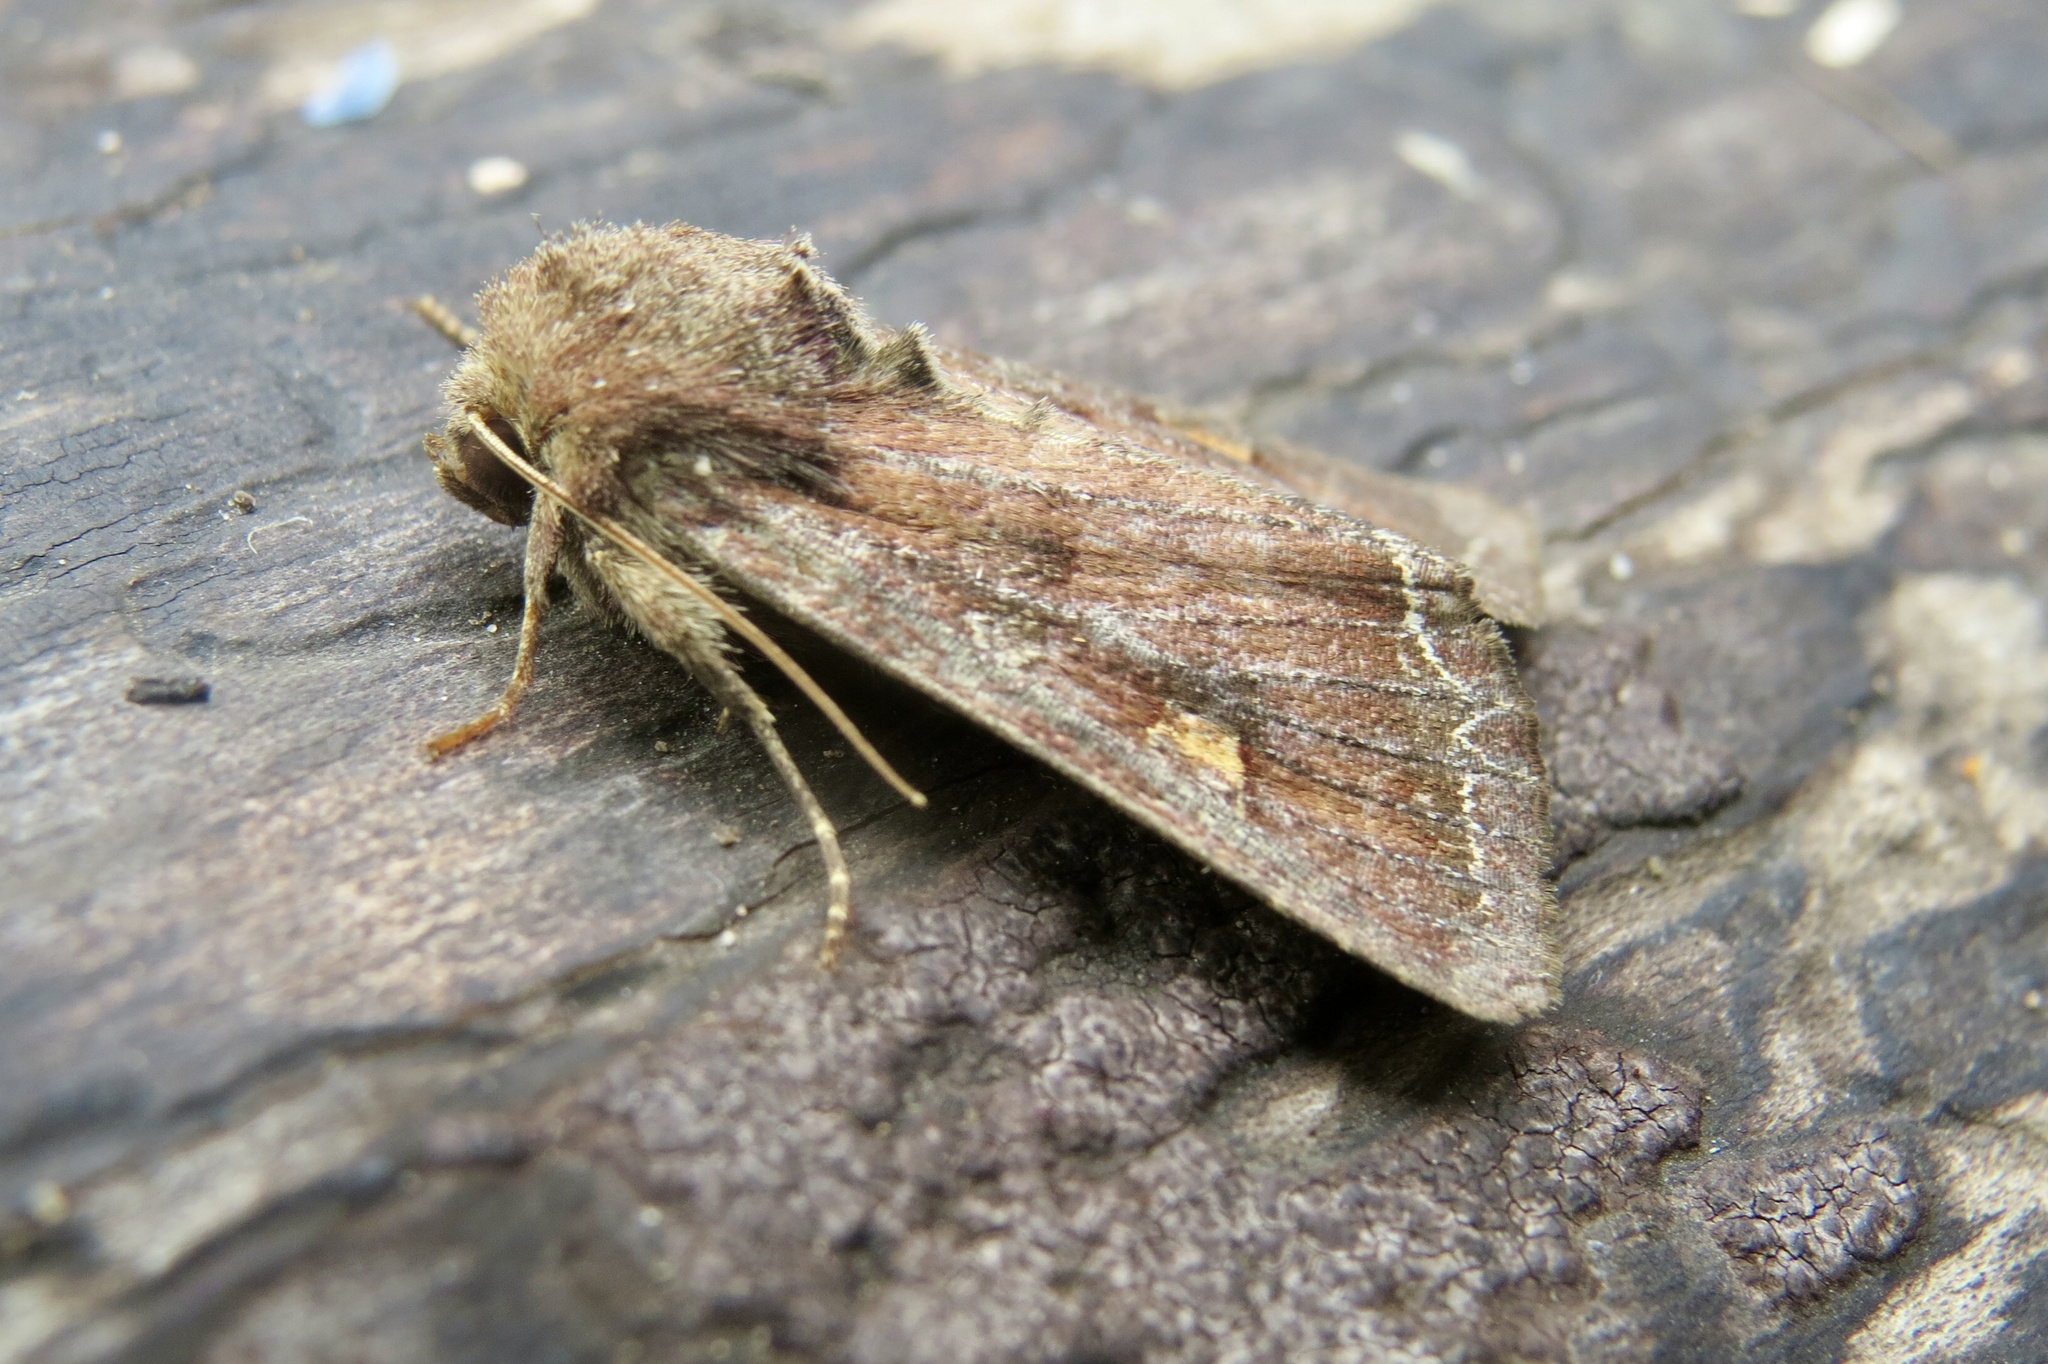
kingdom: Animalia
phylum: Arthropoda
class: Insecta
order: Lepidoptera
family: Noctuidae
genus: Lacanobia
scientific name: Lacanobia oleracea
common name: Bright-line brown-eye
